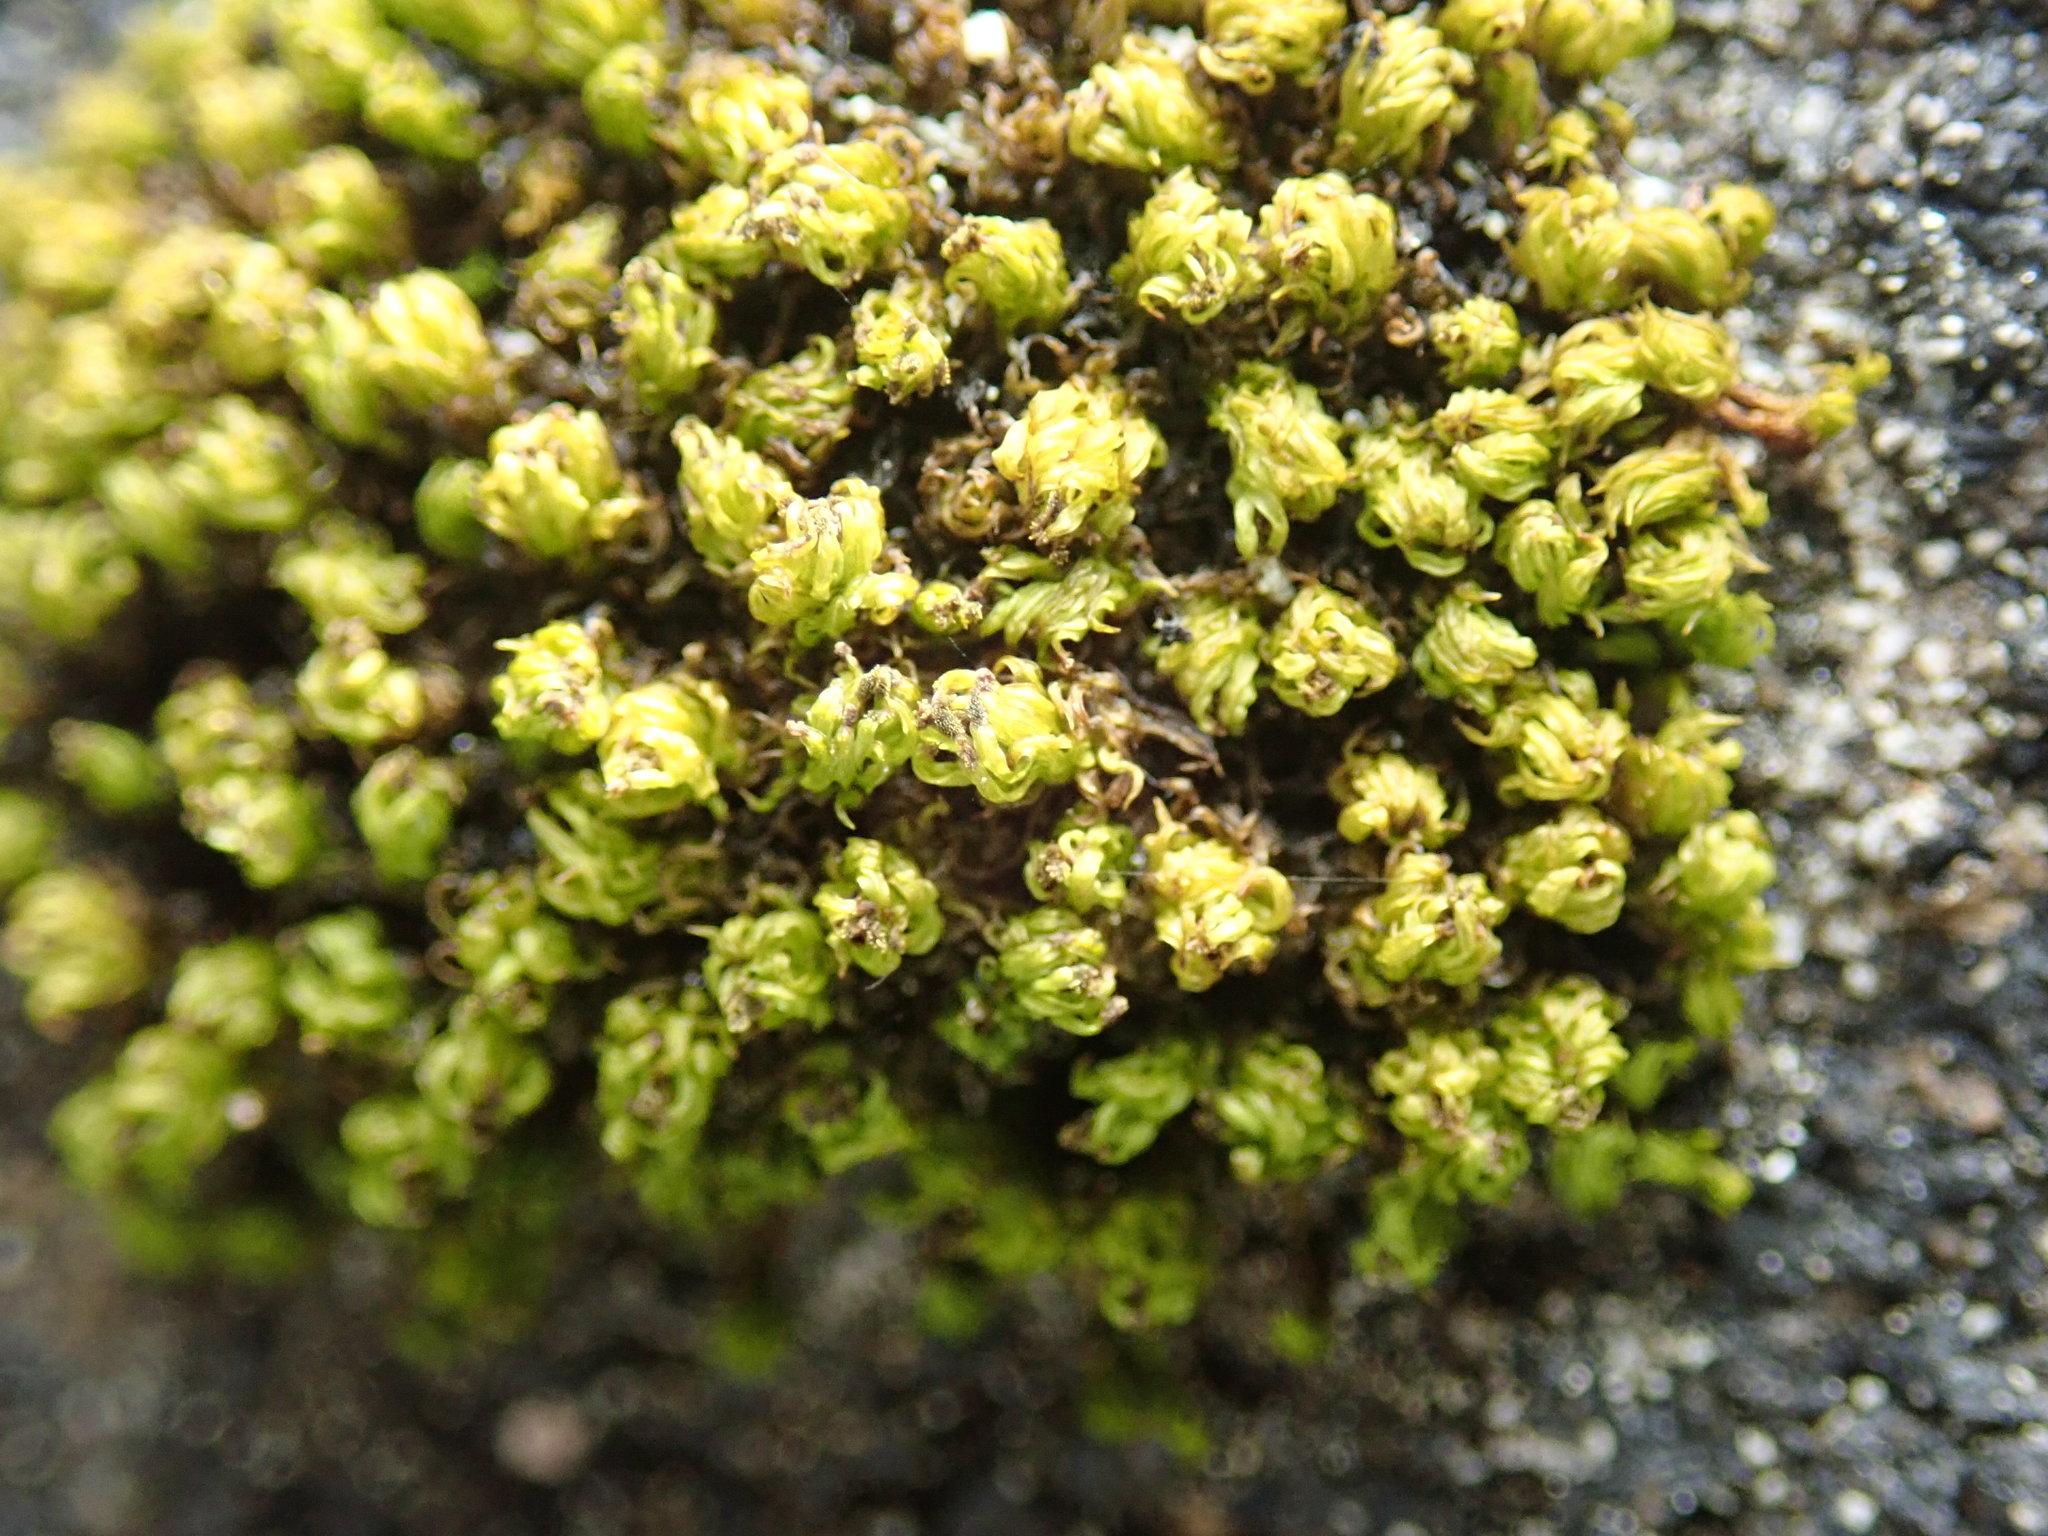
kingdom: Plantae
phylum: Bryophyta
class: Bryopsida
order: Orthotrichales
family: Orthotrichaceae
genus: Plenogemma
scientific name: Plenogemma phyllantha
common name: Frizzled pincushion
